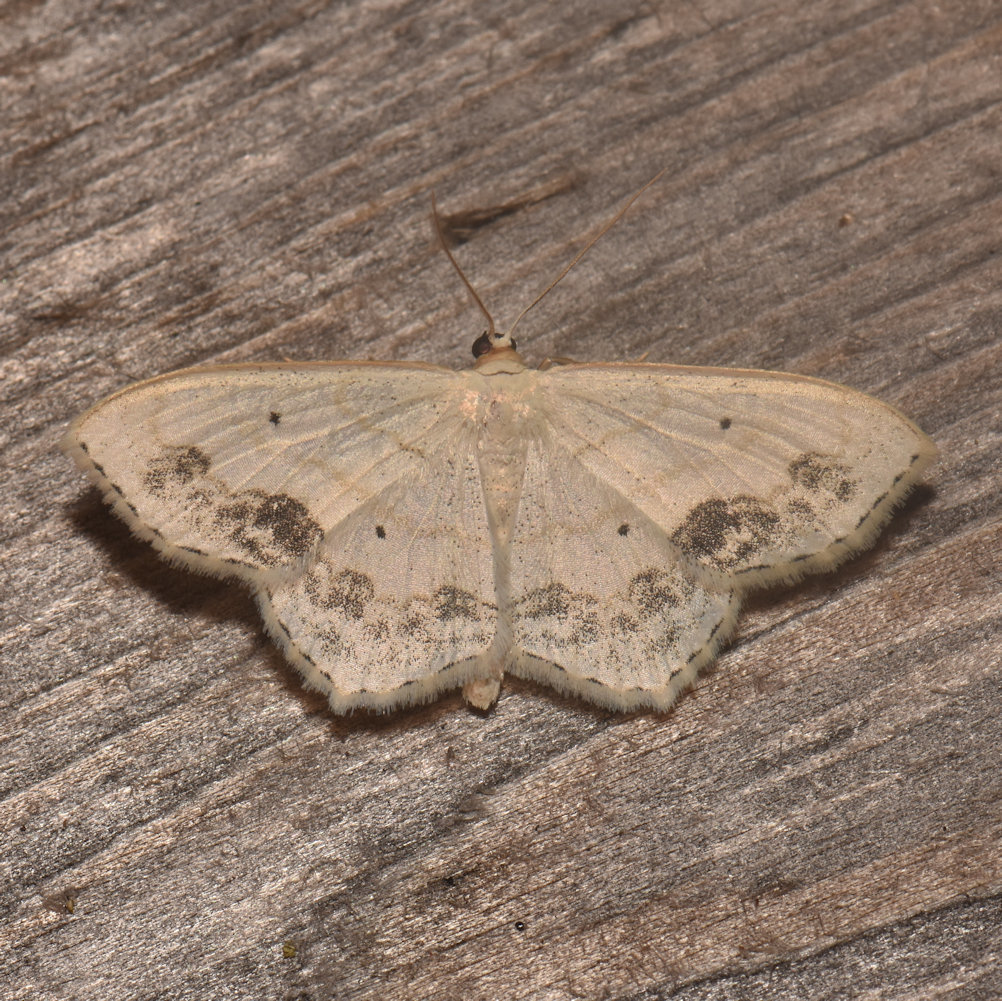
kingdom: Animalia
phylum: Arthropoda
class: Insecta
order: Lepidoptera
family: Geometridae
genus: Scopula
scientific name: Scopula limboundata
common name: Large lace border
